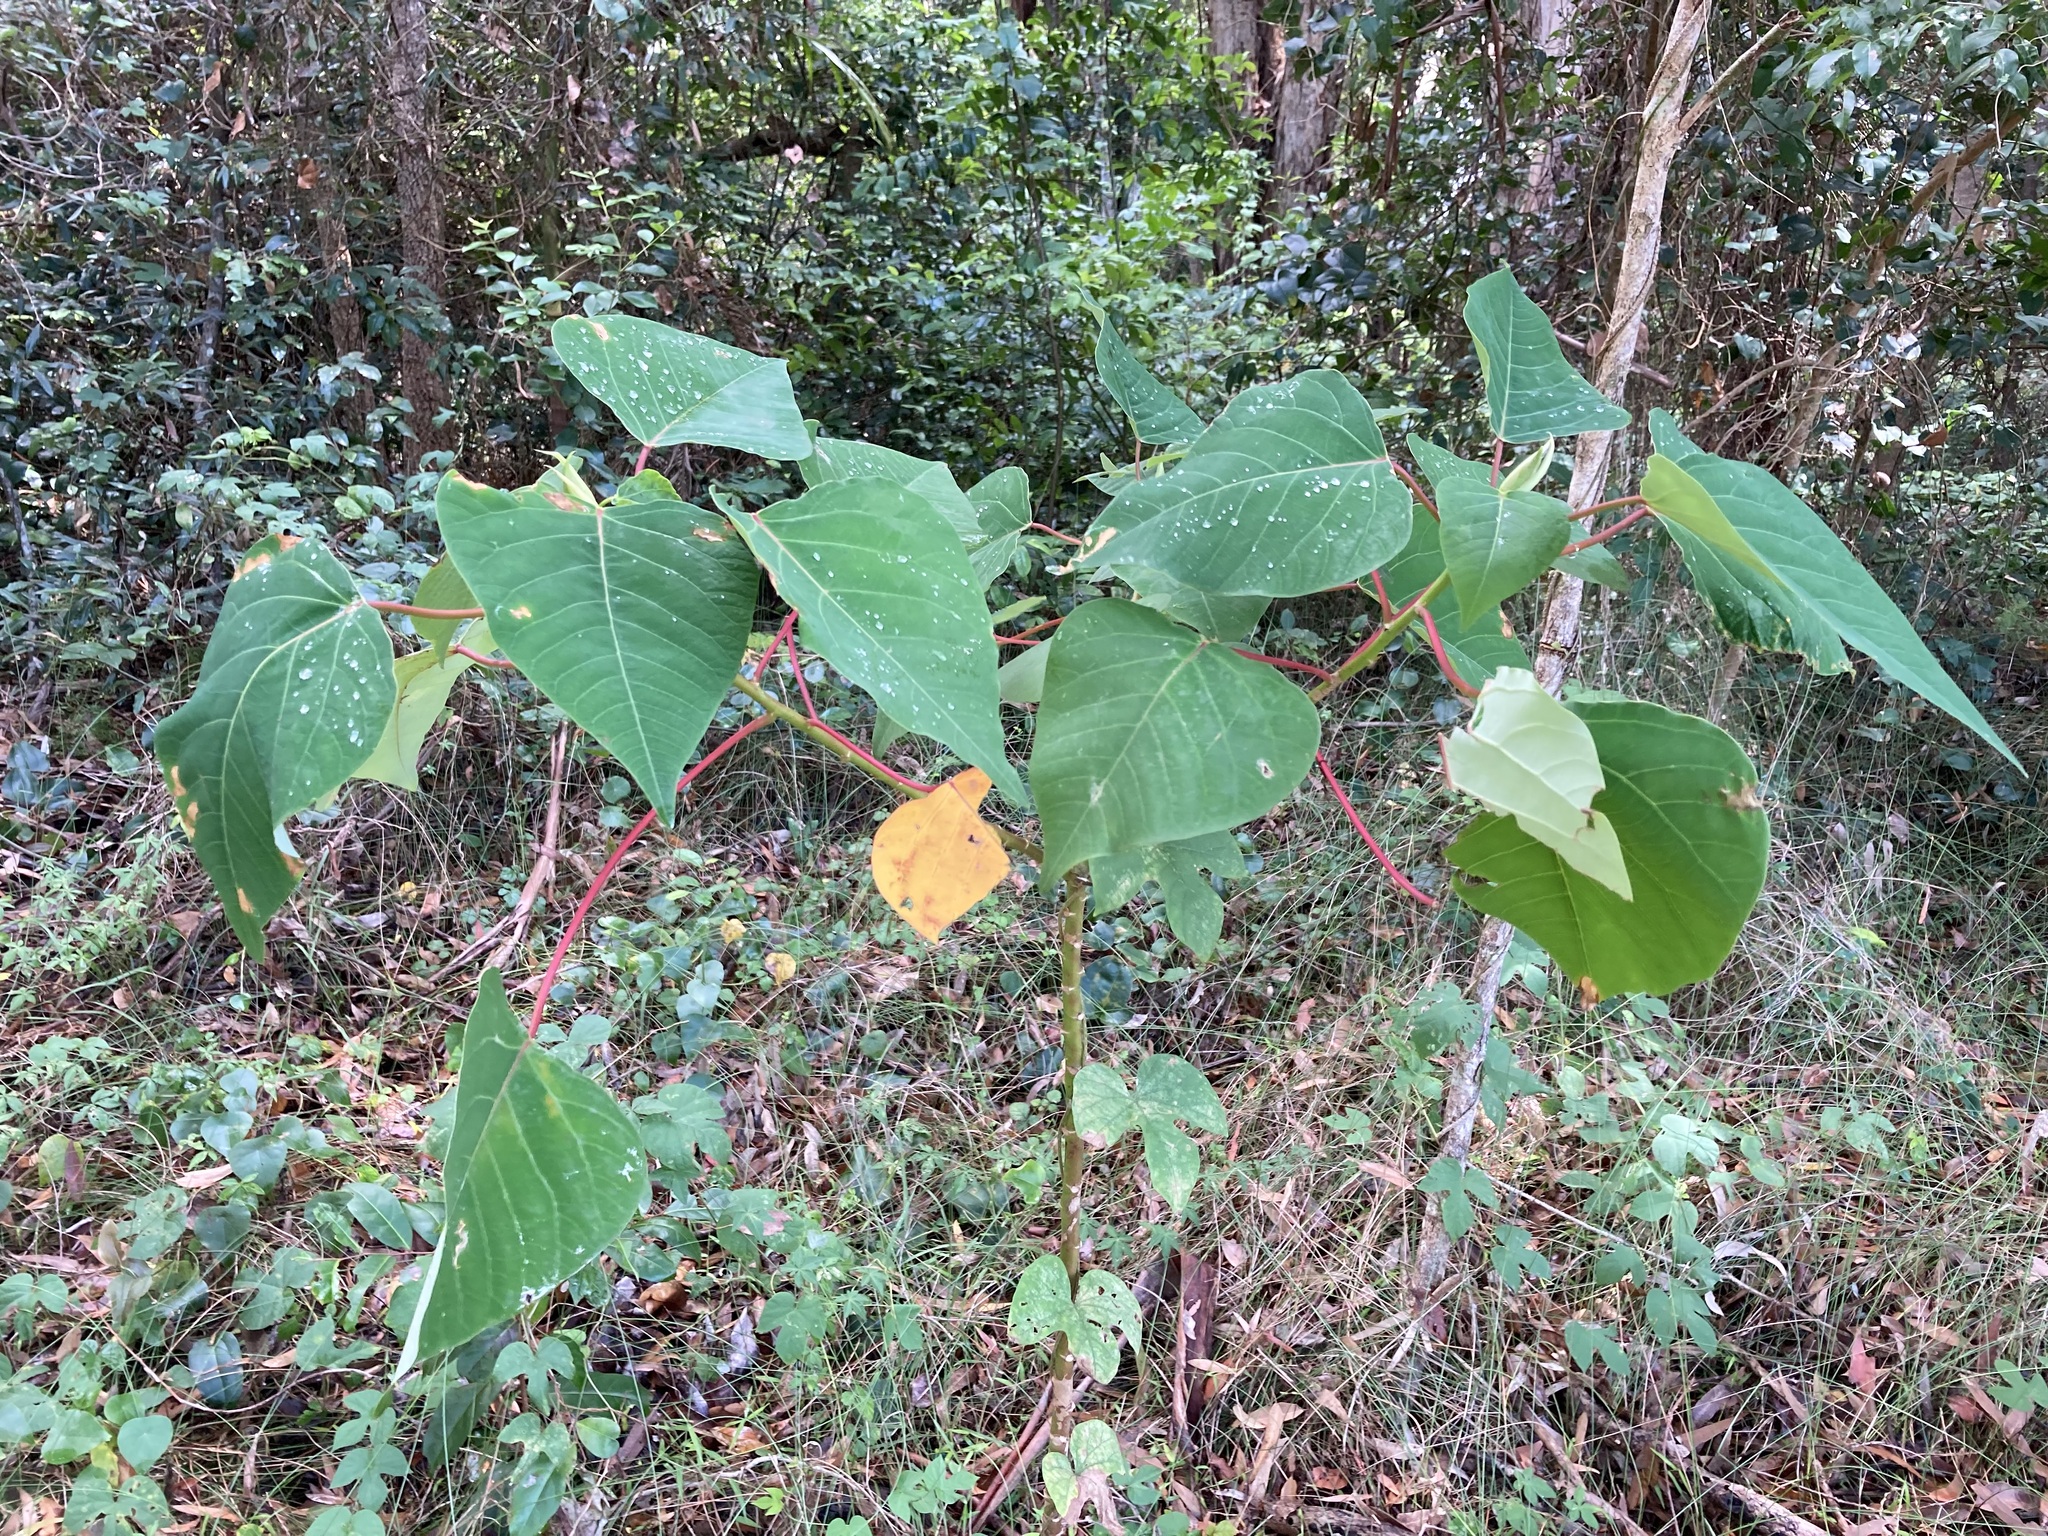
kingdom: Plantae
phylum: Tracheophyta
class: Magnoliopsida
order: Malpighiales
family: Euphorbiaceae
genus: Homalanthus
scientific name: Homalanthus populifolius
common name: Queensland poplar
